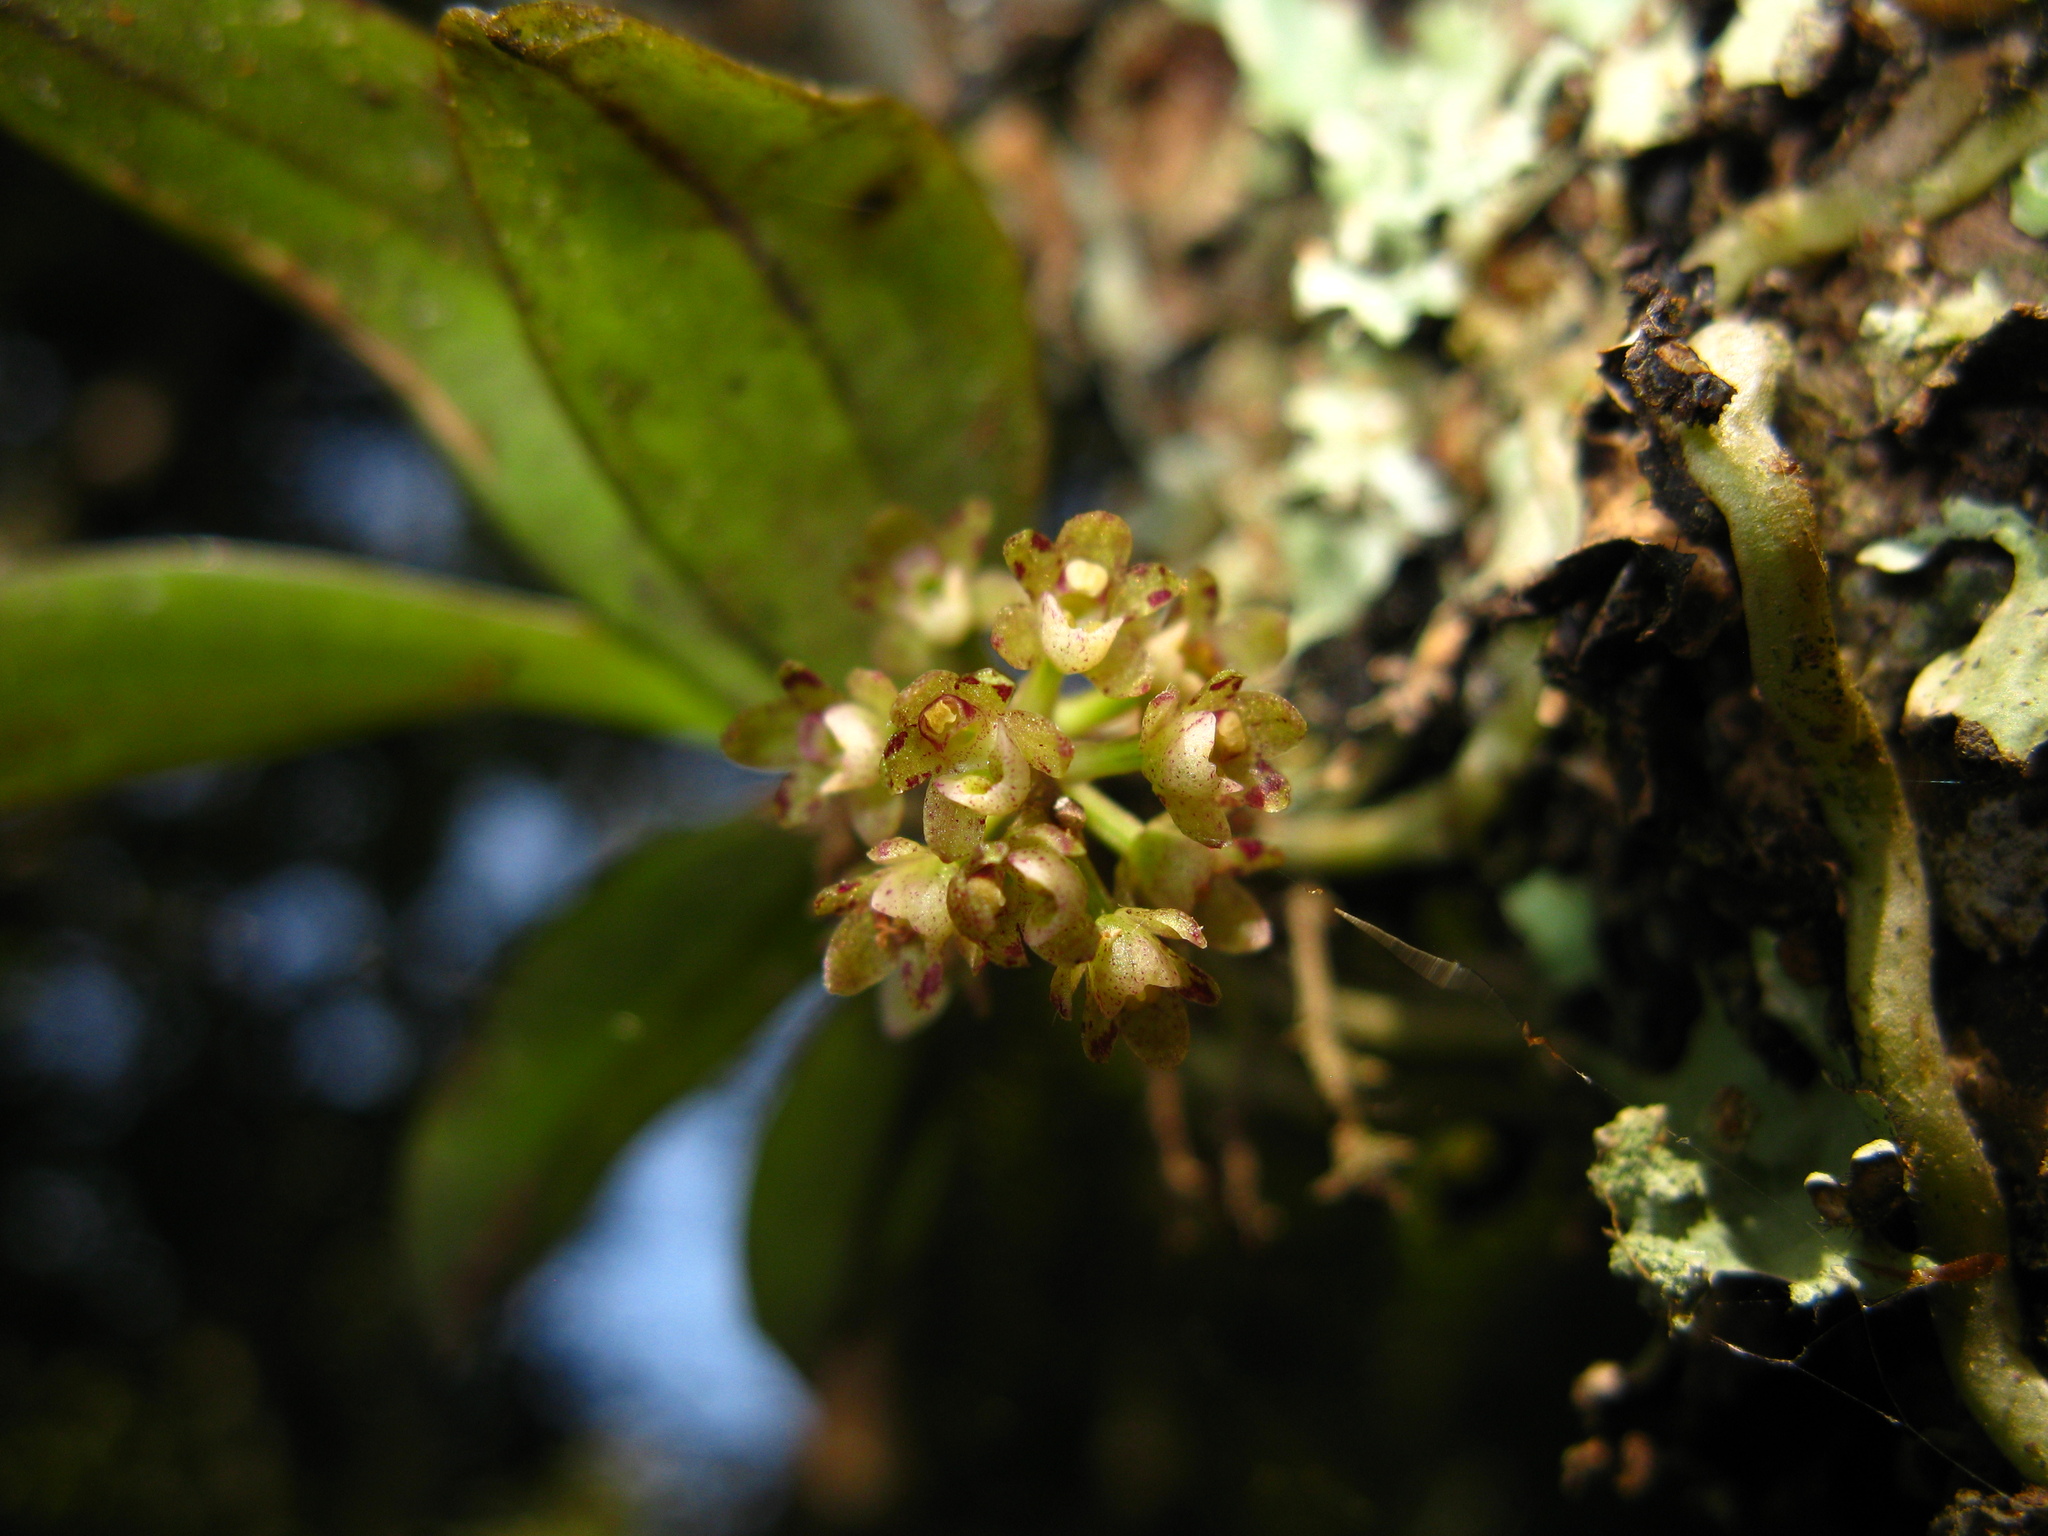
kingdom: Plantae
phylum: Tracheophyta
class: Liliopsida
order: Asparagales
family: Orchidaceae
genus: Drymoanthus
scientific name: Drymoanthus adversus
